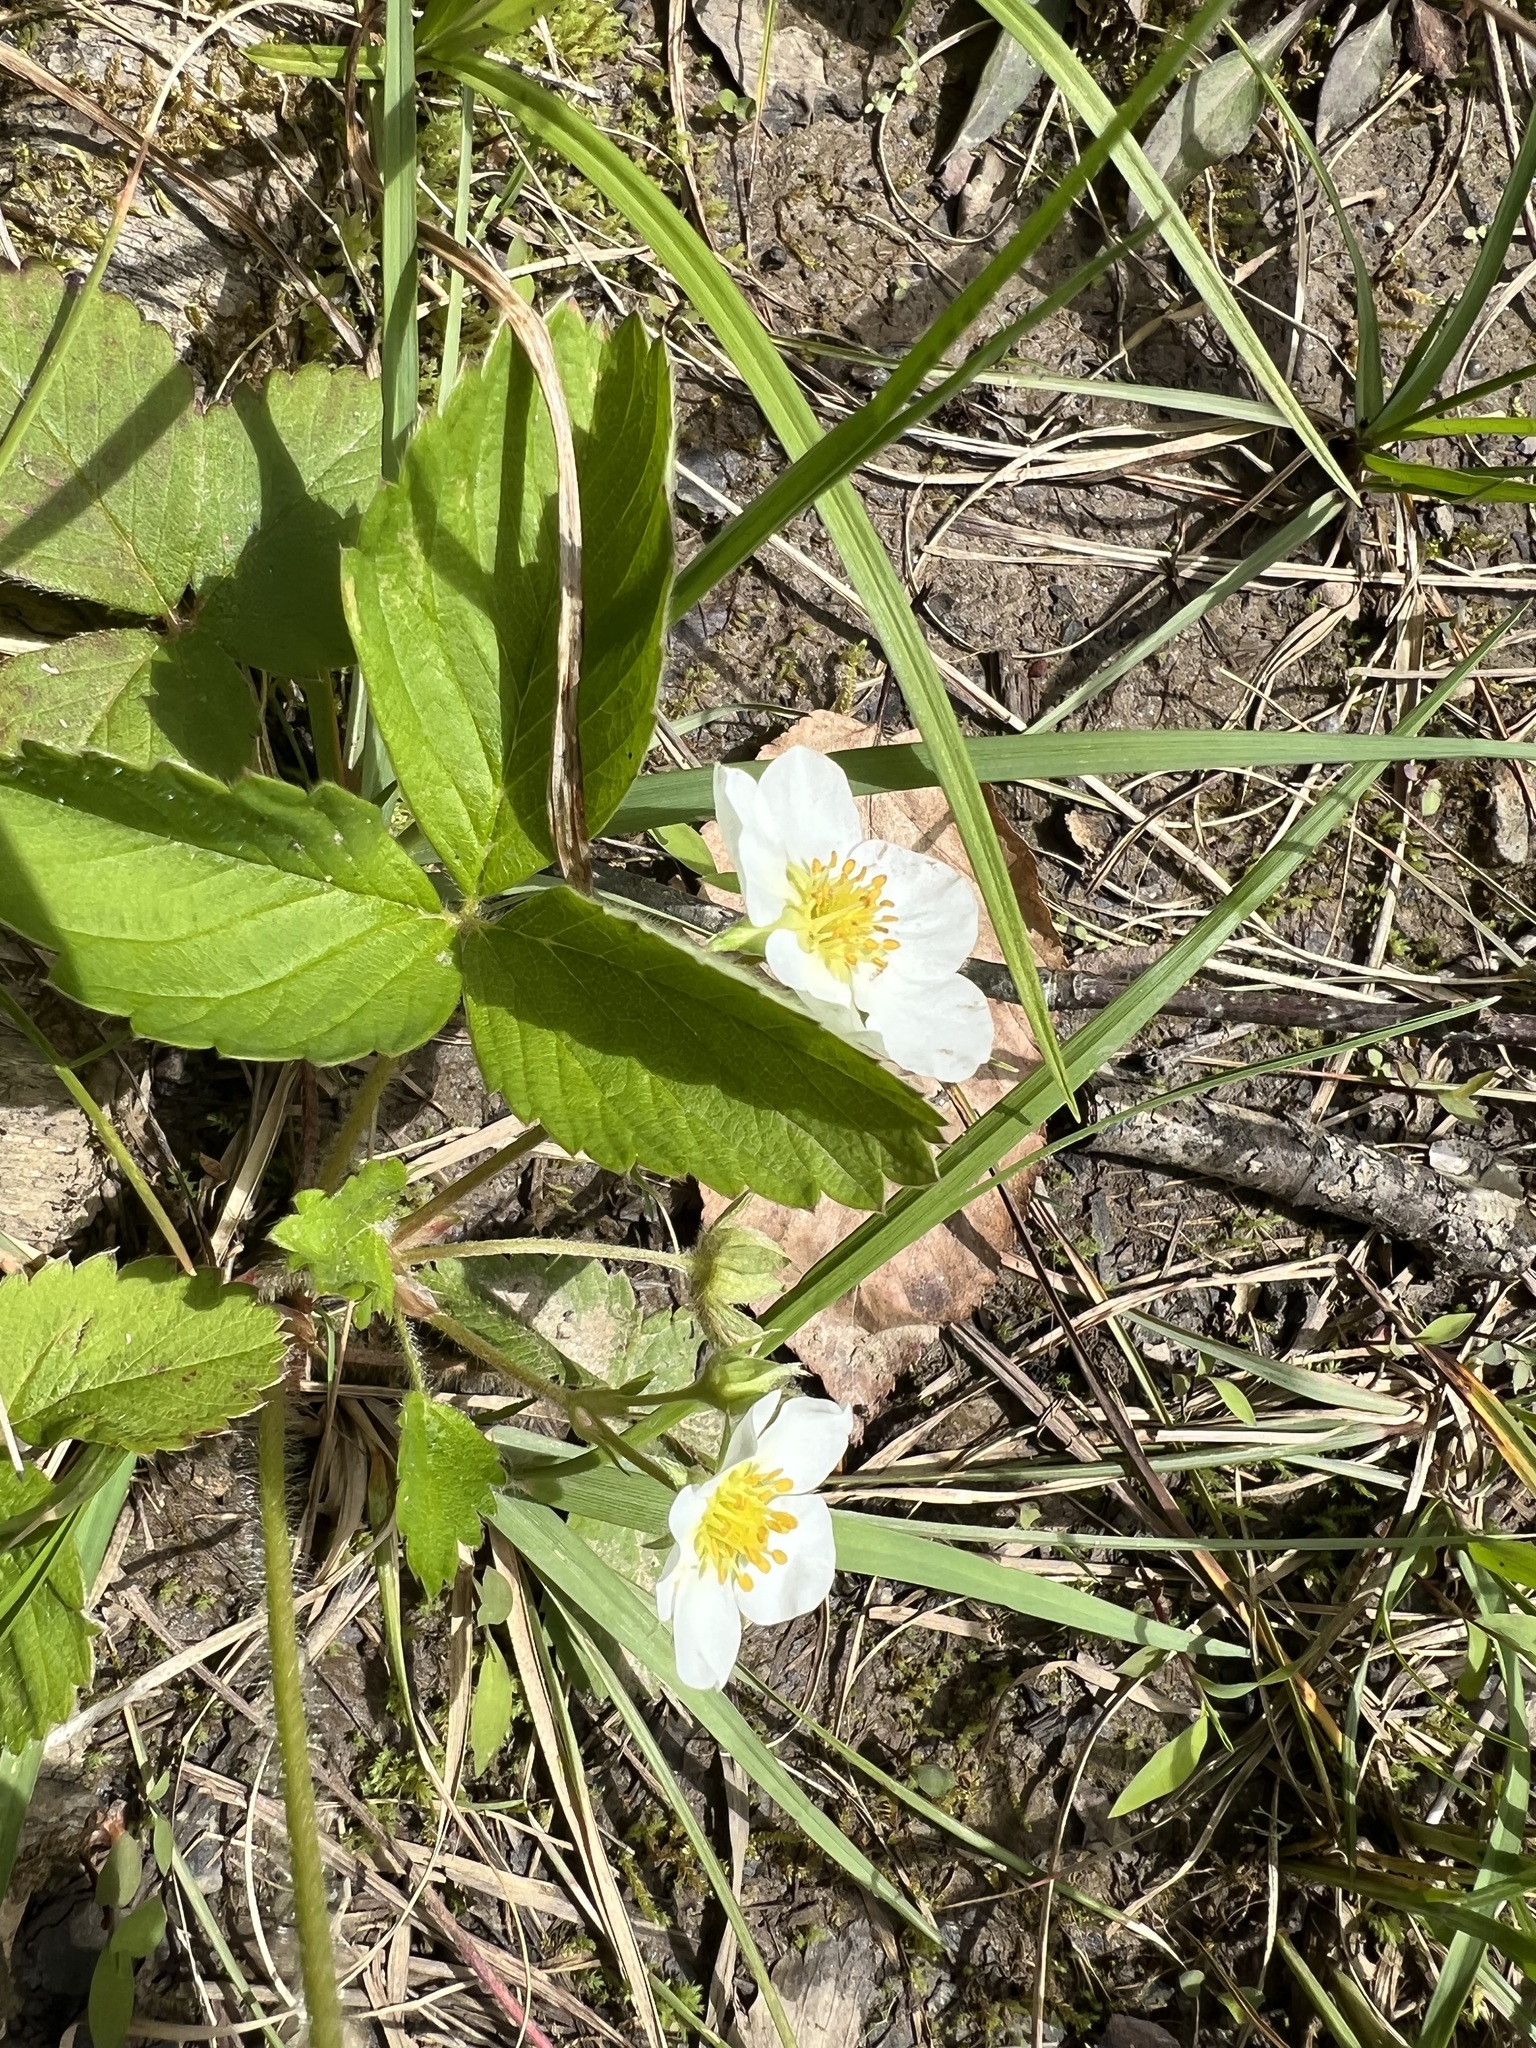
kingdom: Plantae
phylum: Tracheophyta
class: Magnoliopsida
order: Rosales
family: Rosaceae
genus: Fragaria
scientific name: Fragaria virginiana
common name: Thickleaved wild strawberry
